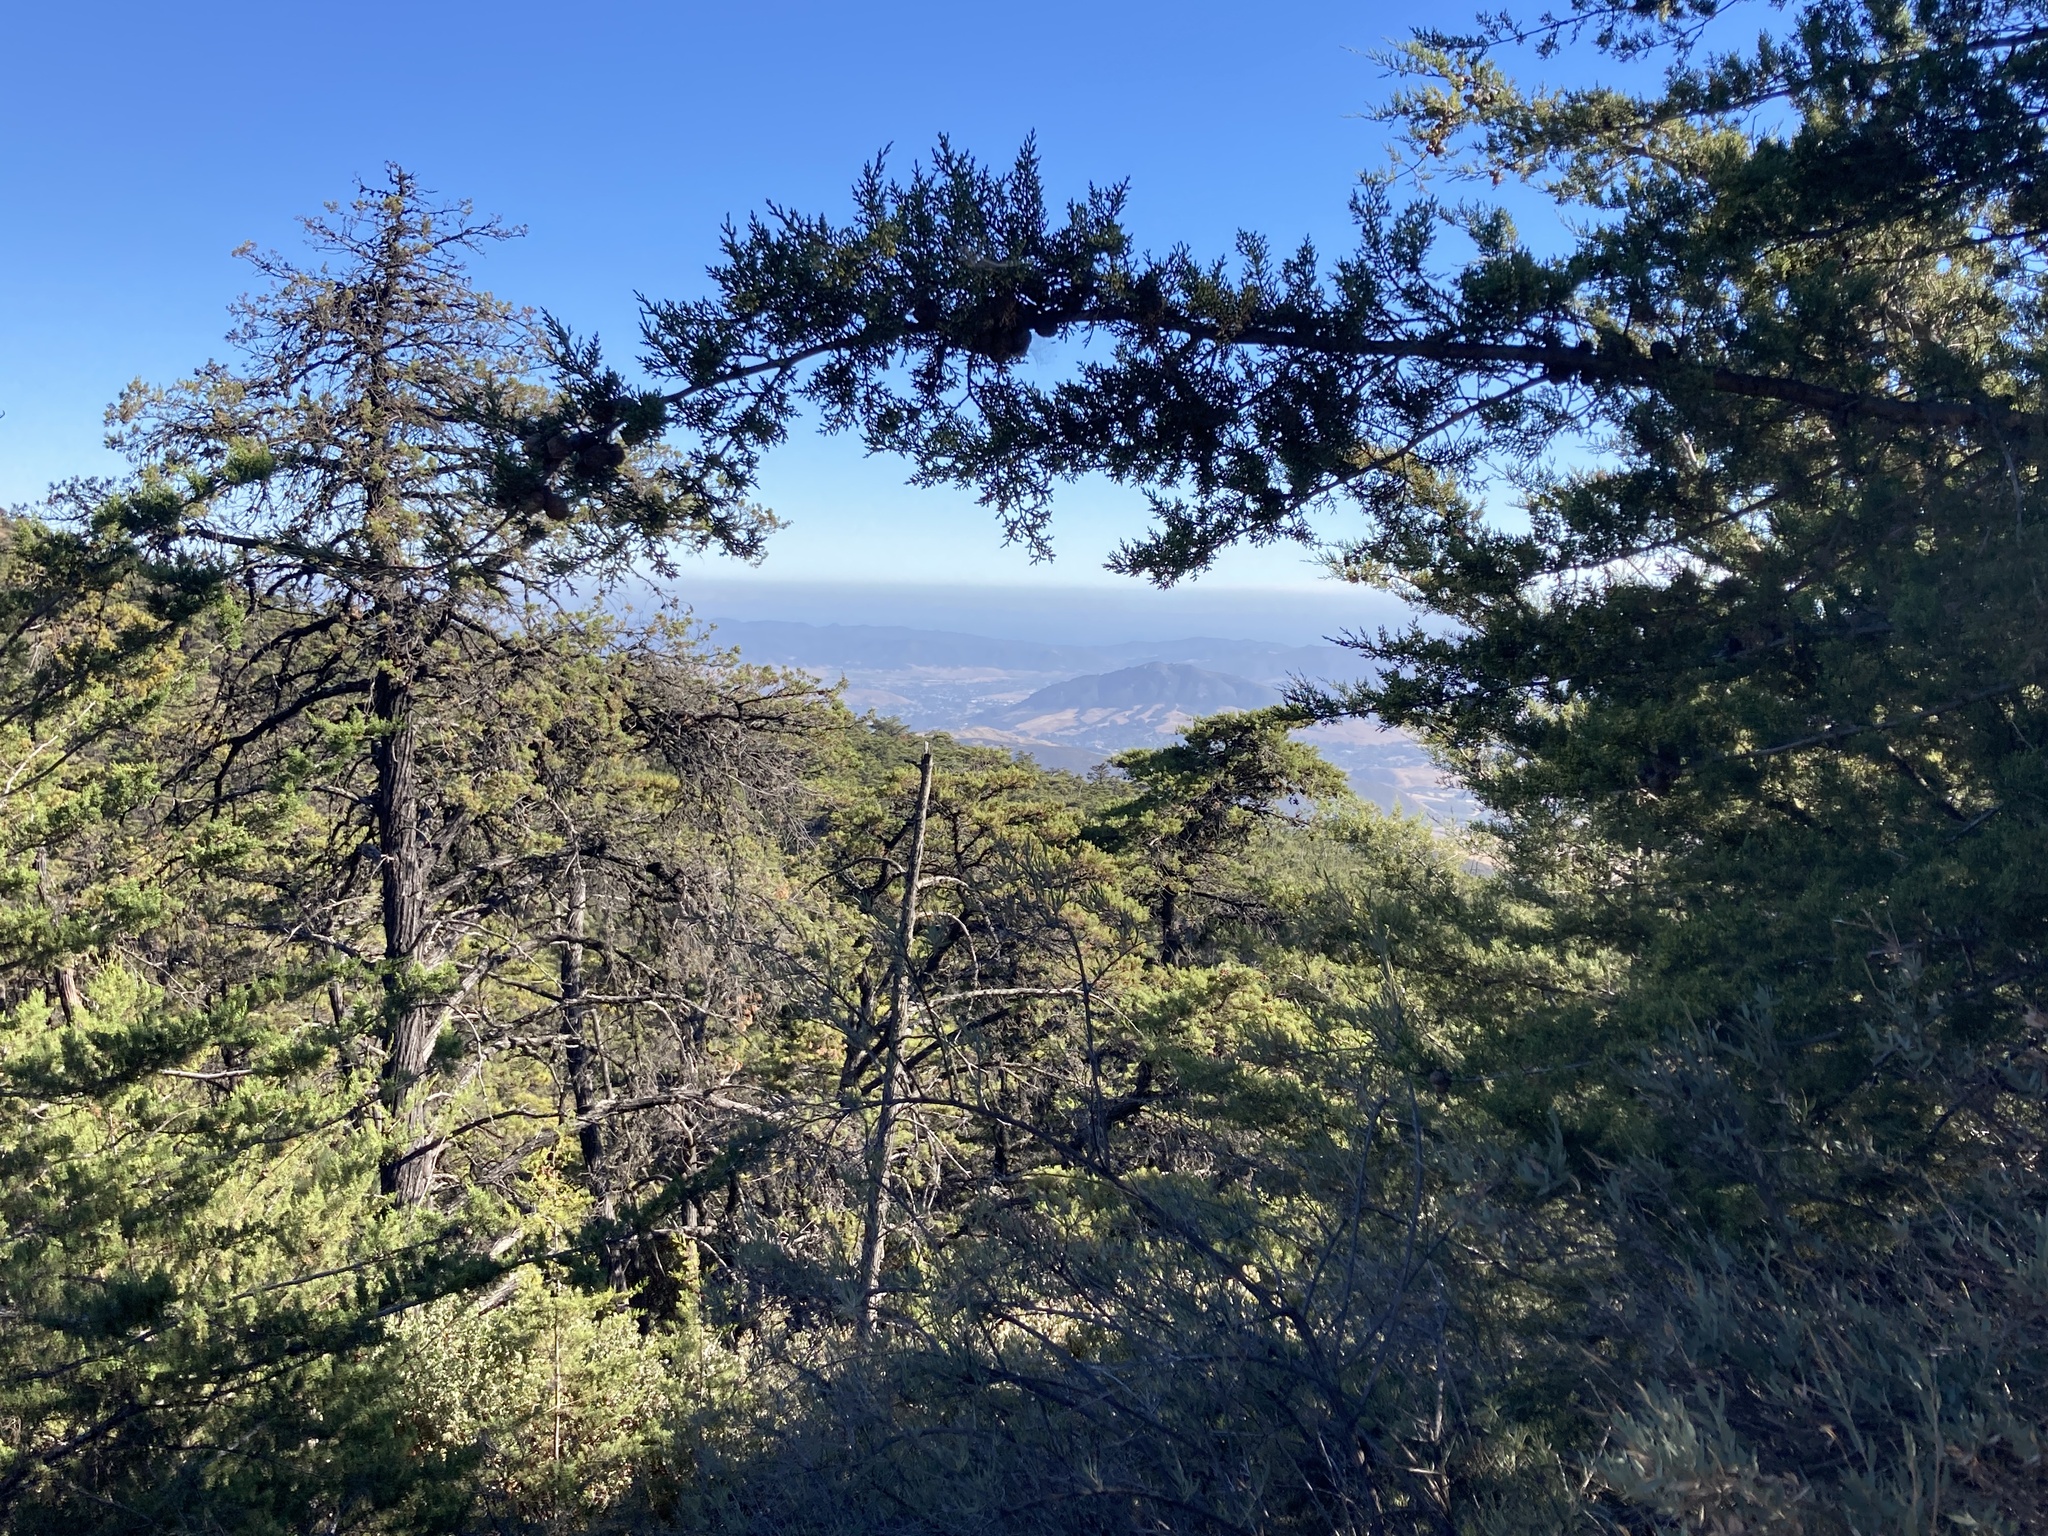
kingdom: Plantae
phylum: Tracheophyta
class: Pinopsida
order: Pinales
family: Cupressaceae
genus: Cupressus
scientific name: Cupressus sargentii
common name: Sargent cypress
